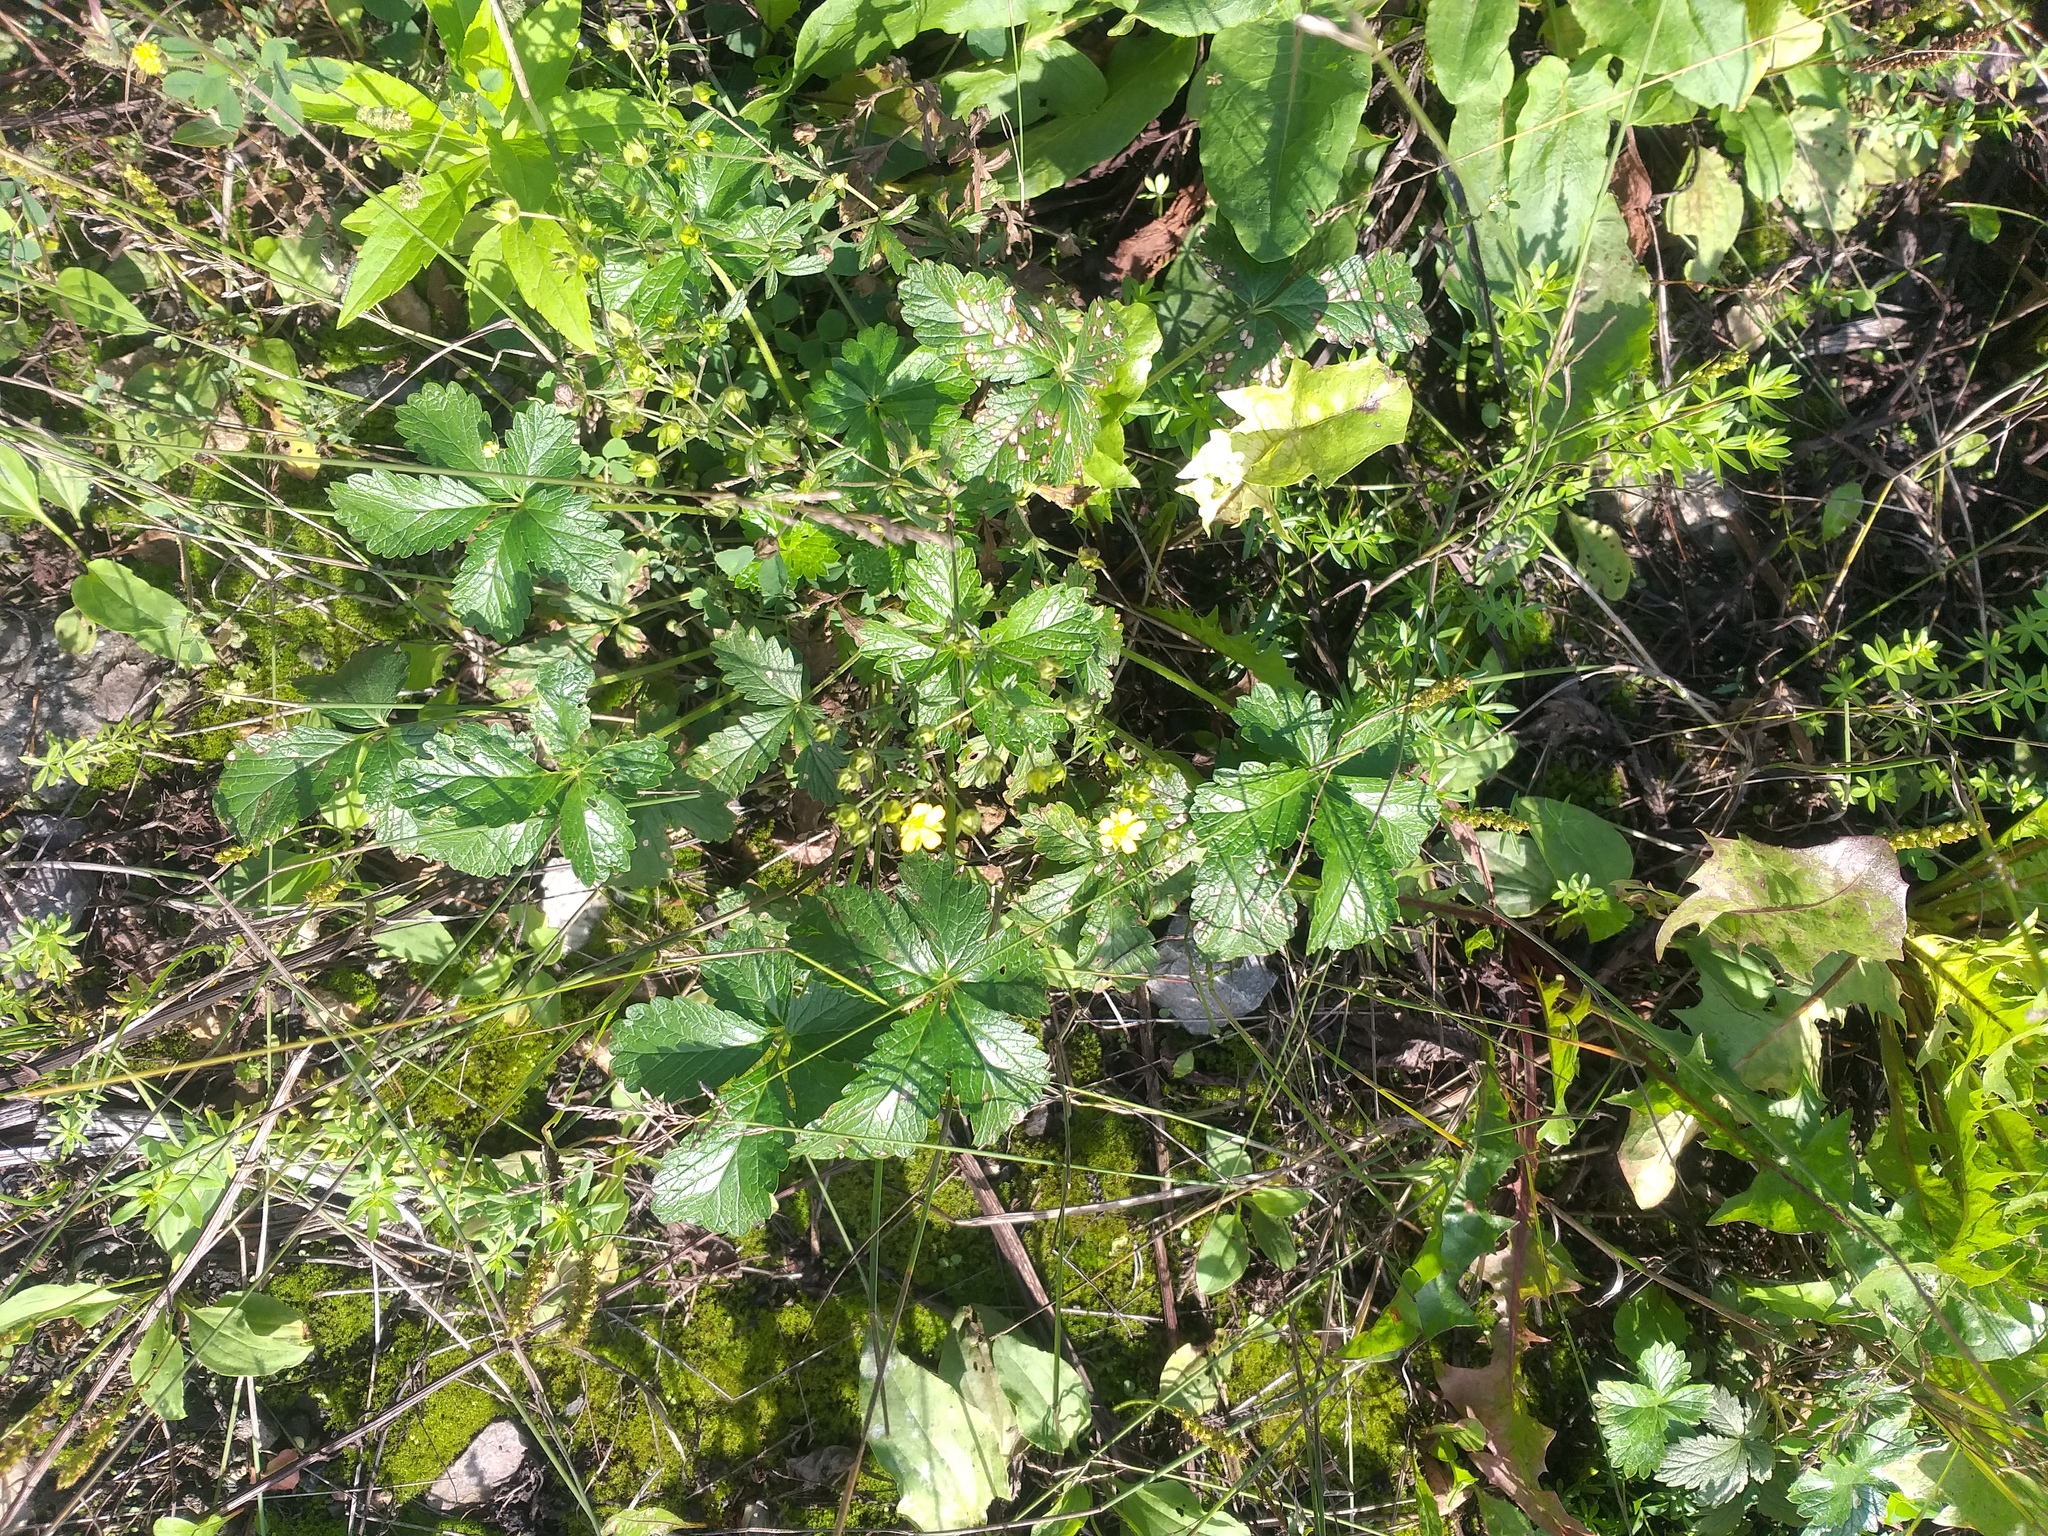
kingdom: Plantae
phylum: Tracheophyta
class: Magnoliopsida
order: Rosales
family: Rosaceae
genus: Potentilla
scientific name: Potentilla intermedia
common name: Downy cinquefoil
